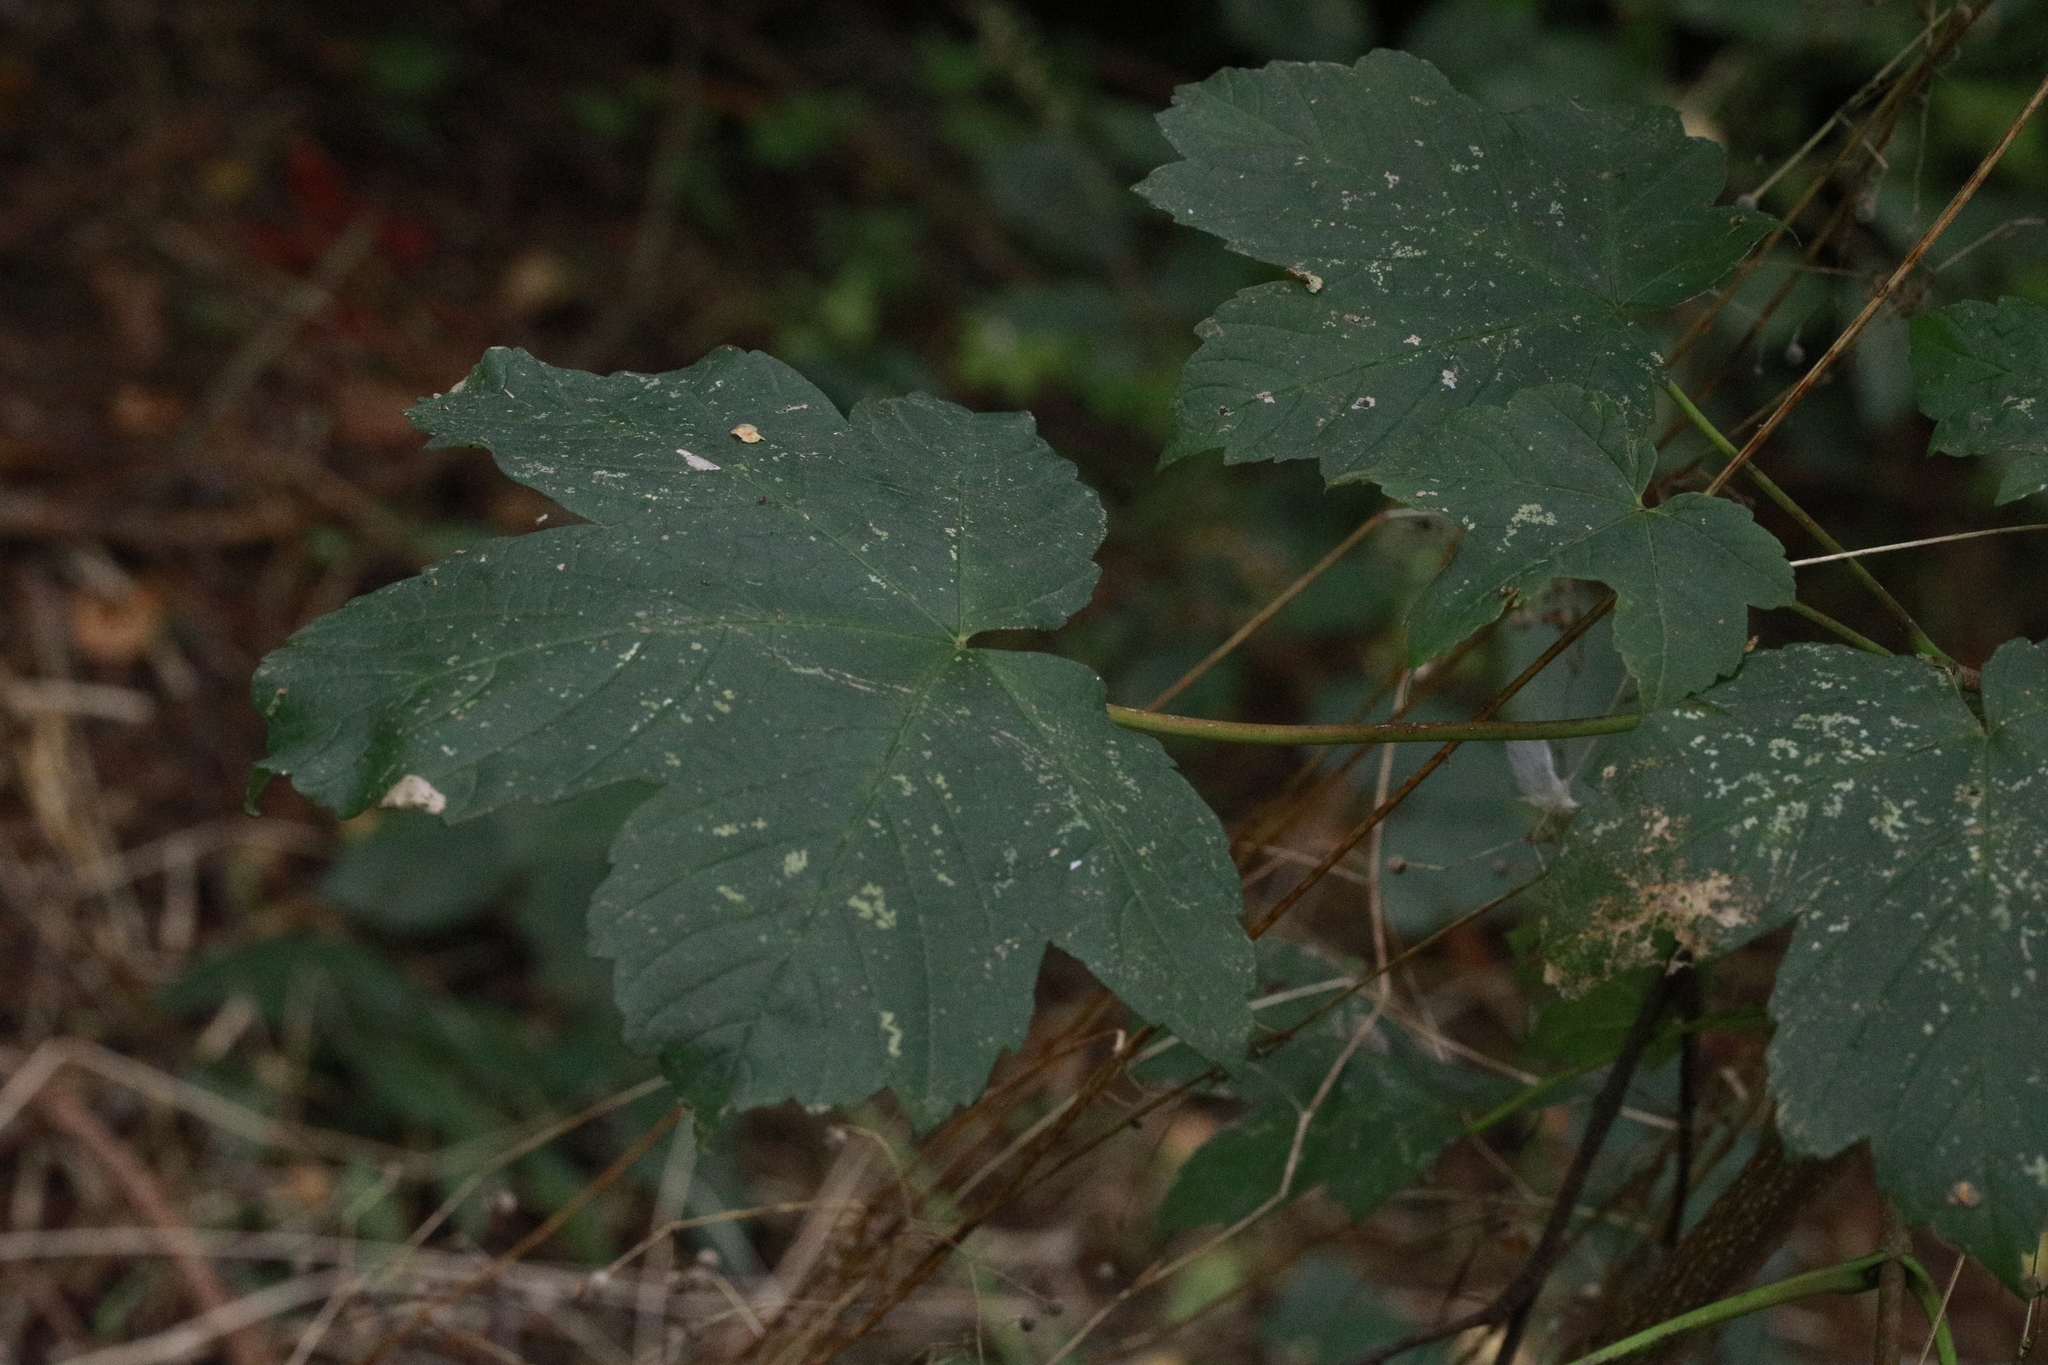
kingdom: Plantae
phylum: Tracheophyta
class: Magnoliopsida
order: Sapindales
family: Sapindaceae
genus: Acer
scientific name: Acer pseudoplatanus
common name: Sycamore
